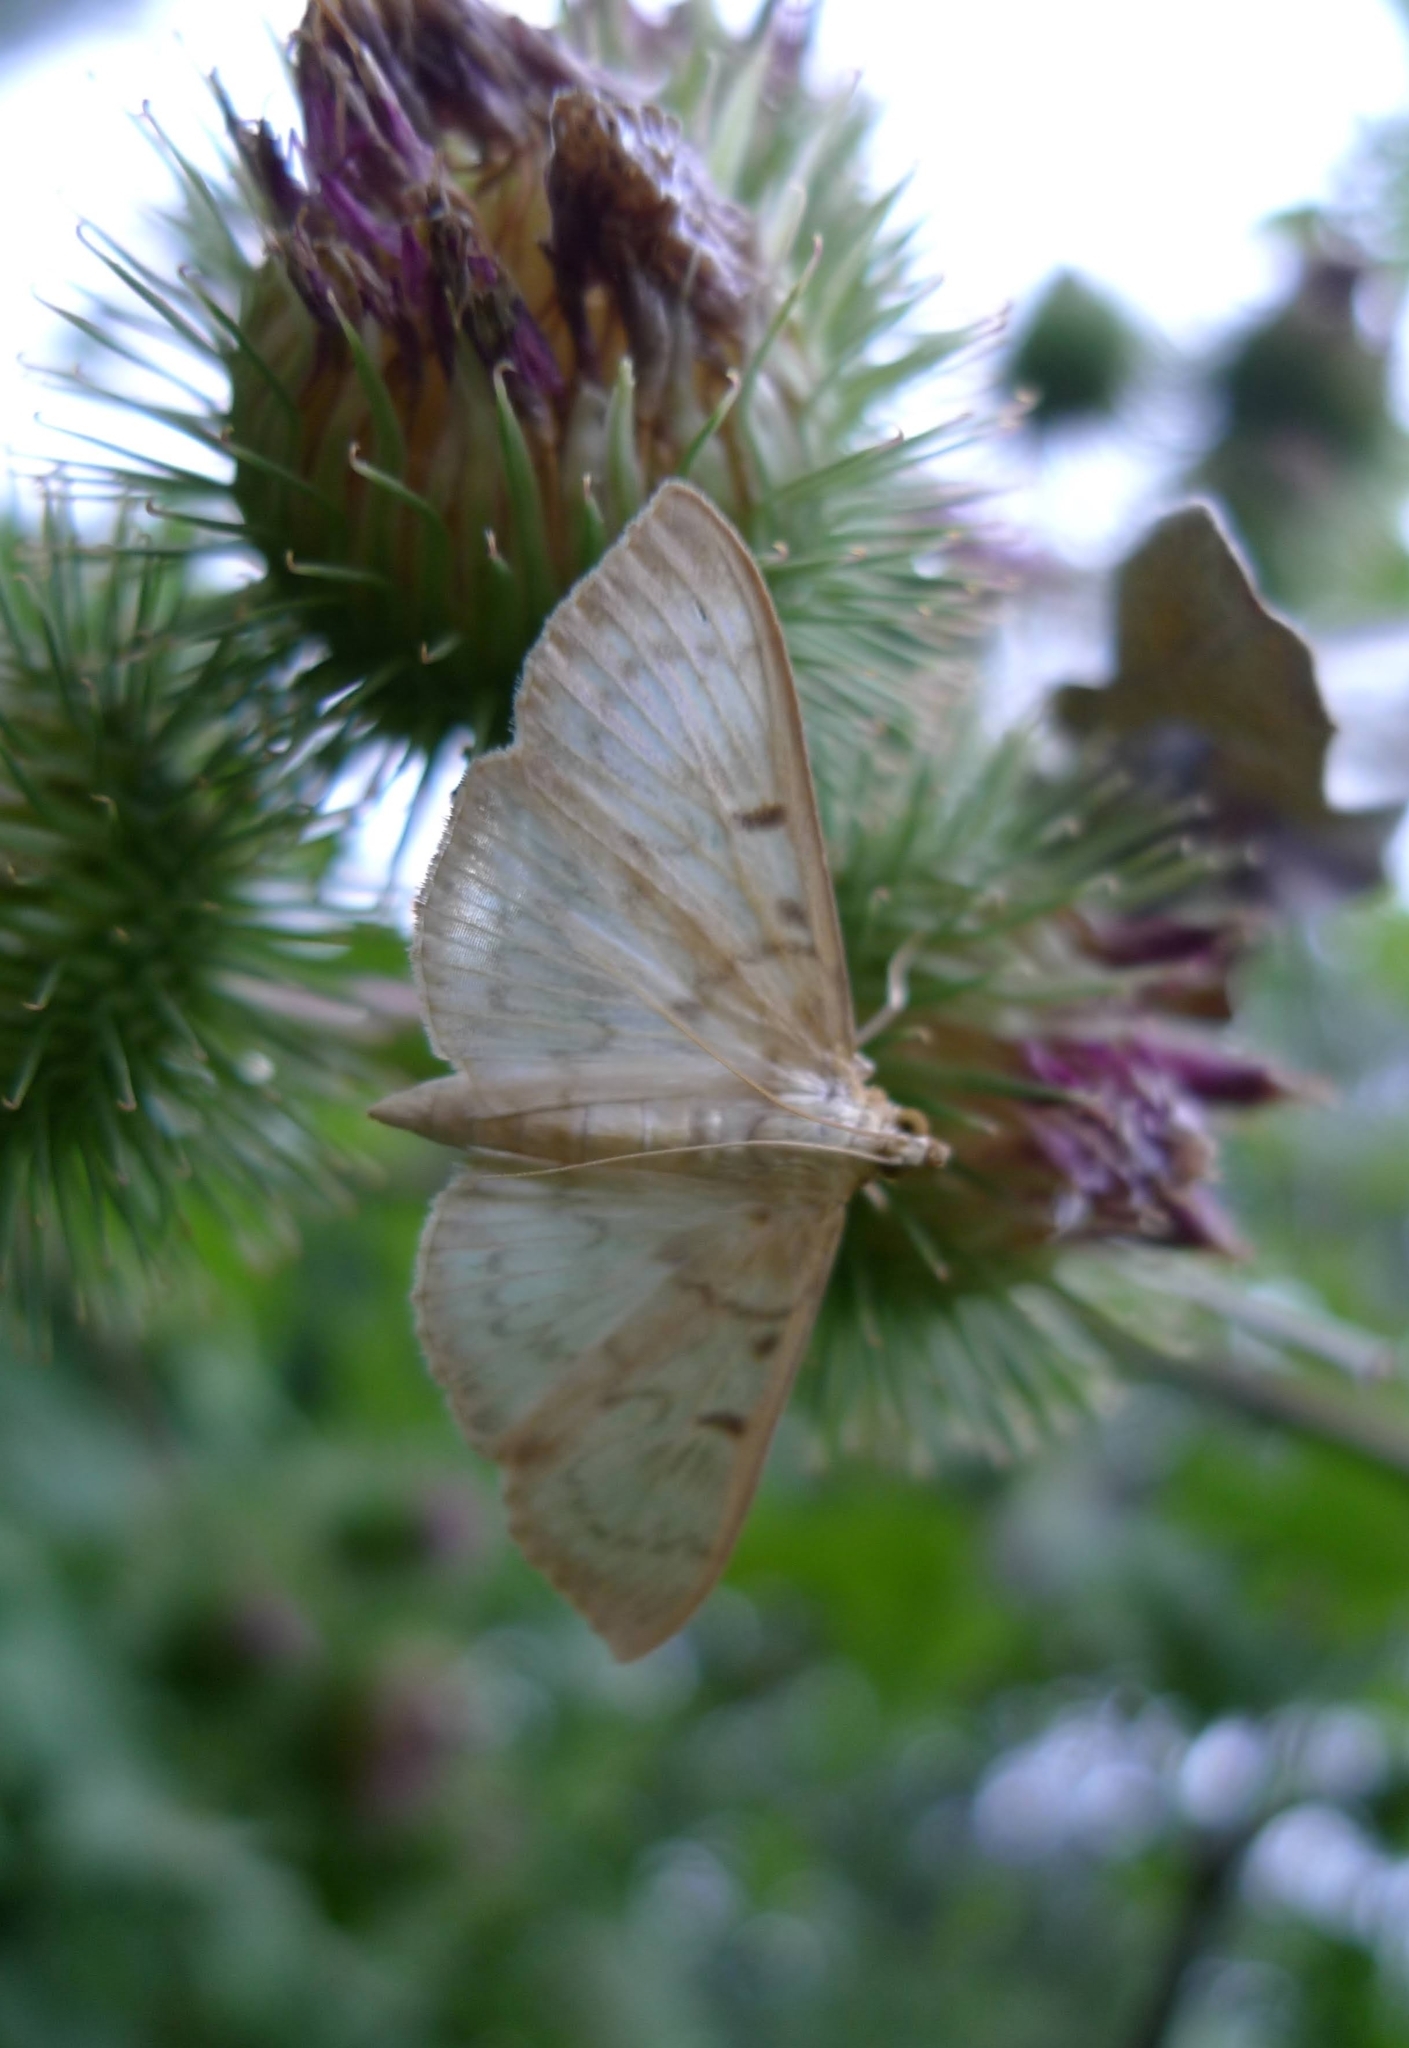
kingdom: Animalia
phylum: Arthropoda
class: Insecta
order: Lepidoptera
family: Crambidae
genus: Patania
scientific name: Patania ruralis
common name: Mother of pearl
